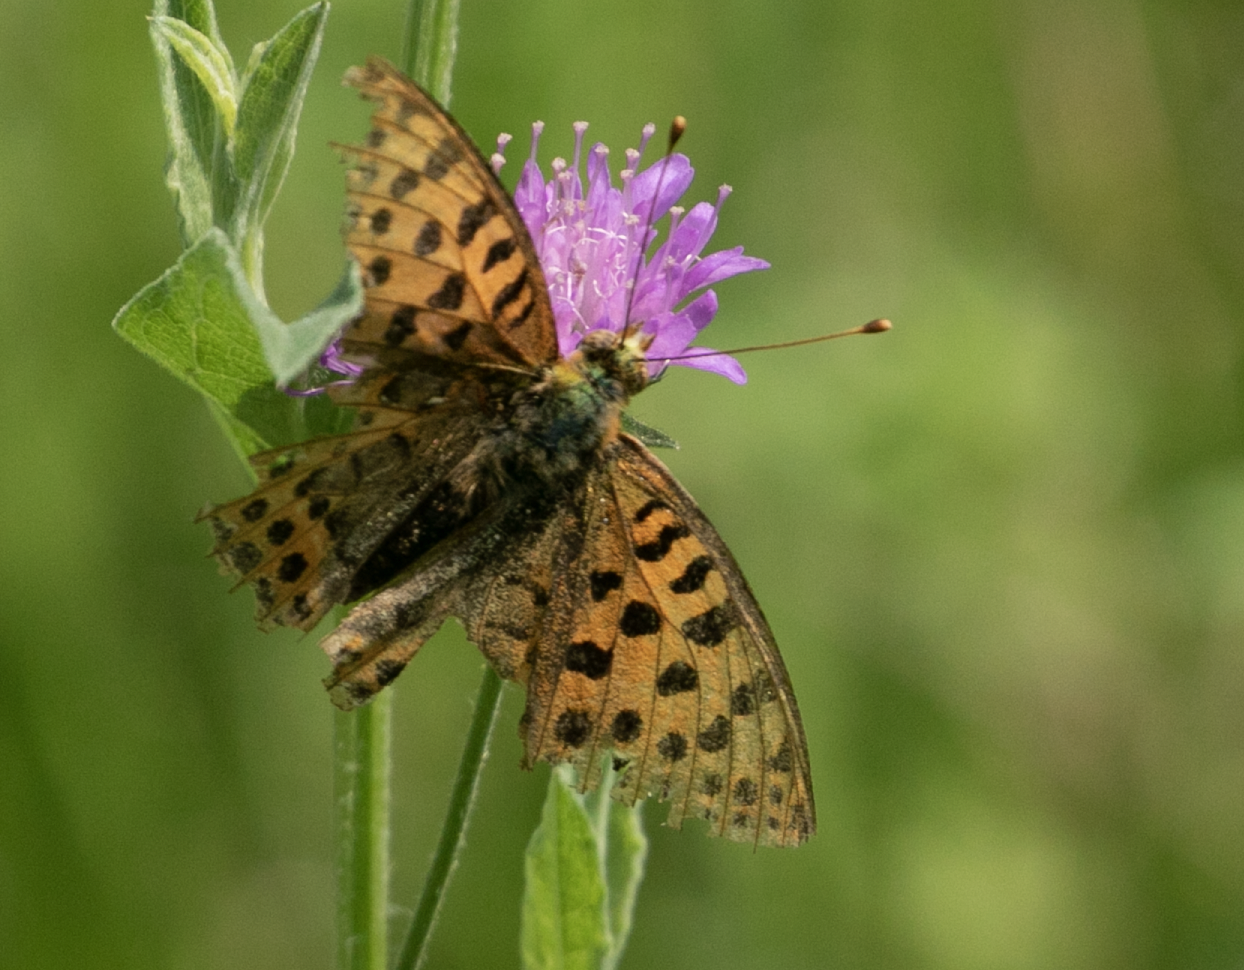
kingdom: Animalia
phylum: Arthropoda
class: Insecta
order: Lepidoptera
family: Nymphalidae
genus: Issoria
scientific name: Issoria lathonia
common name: Queen of spain fritillary
